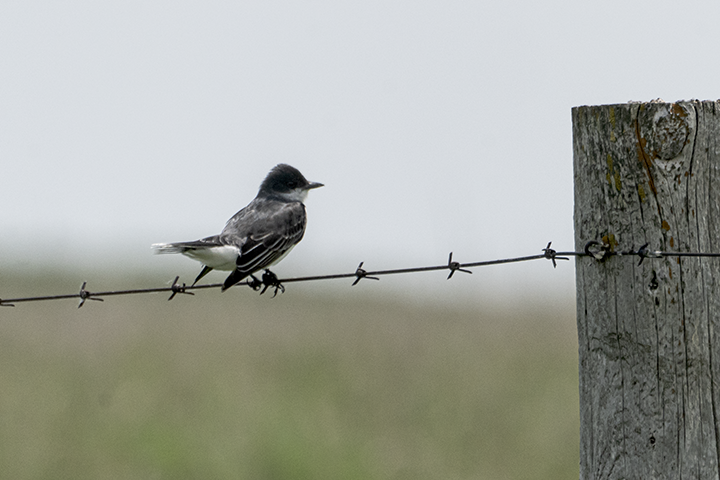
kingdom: Animalia
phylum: Chordata
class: Aves
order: Passeriformes
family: Tyrannidae
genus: Tyrannus
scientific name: Tyrannus tyrannus
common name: Eastern kingbird
